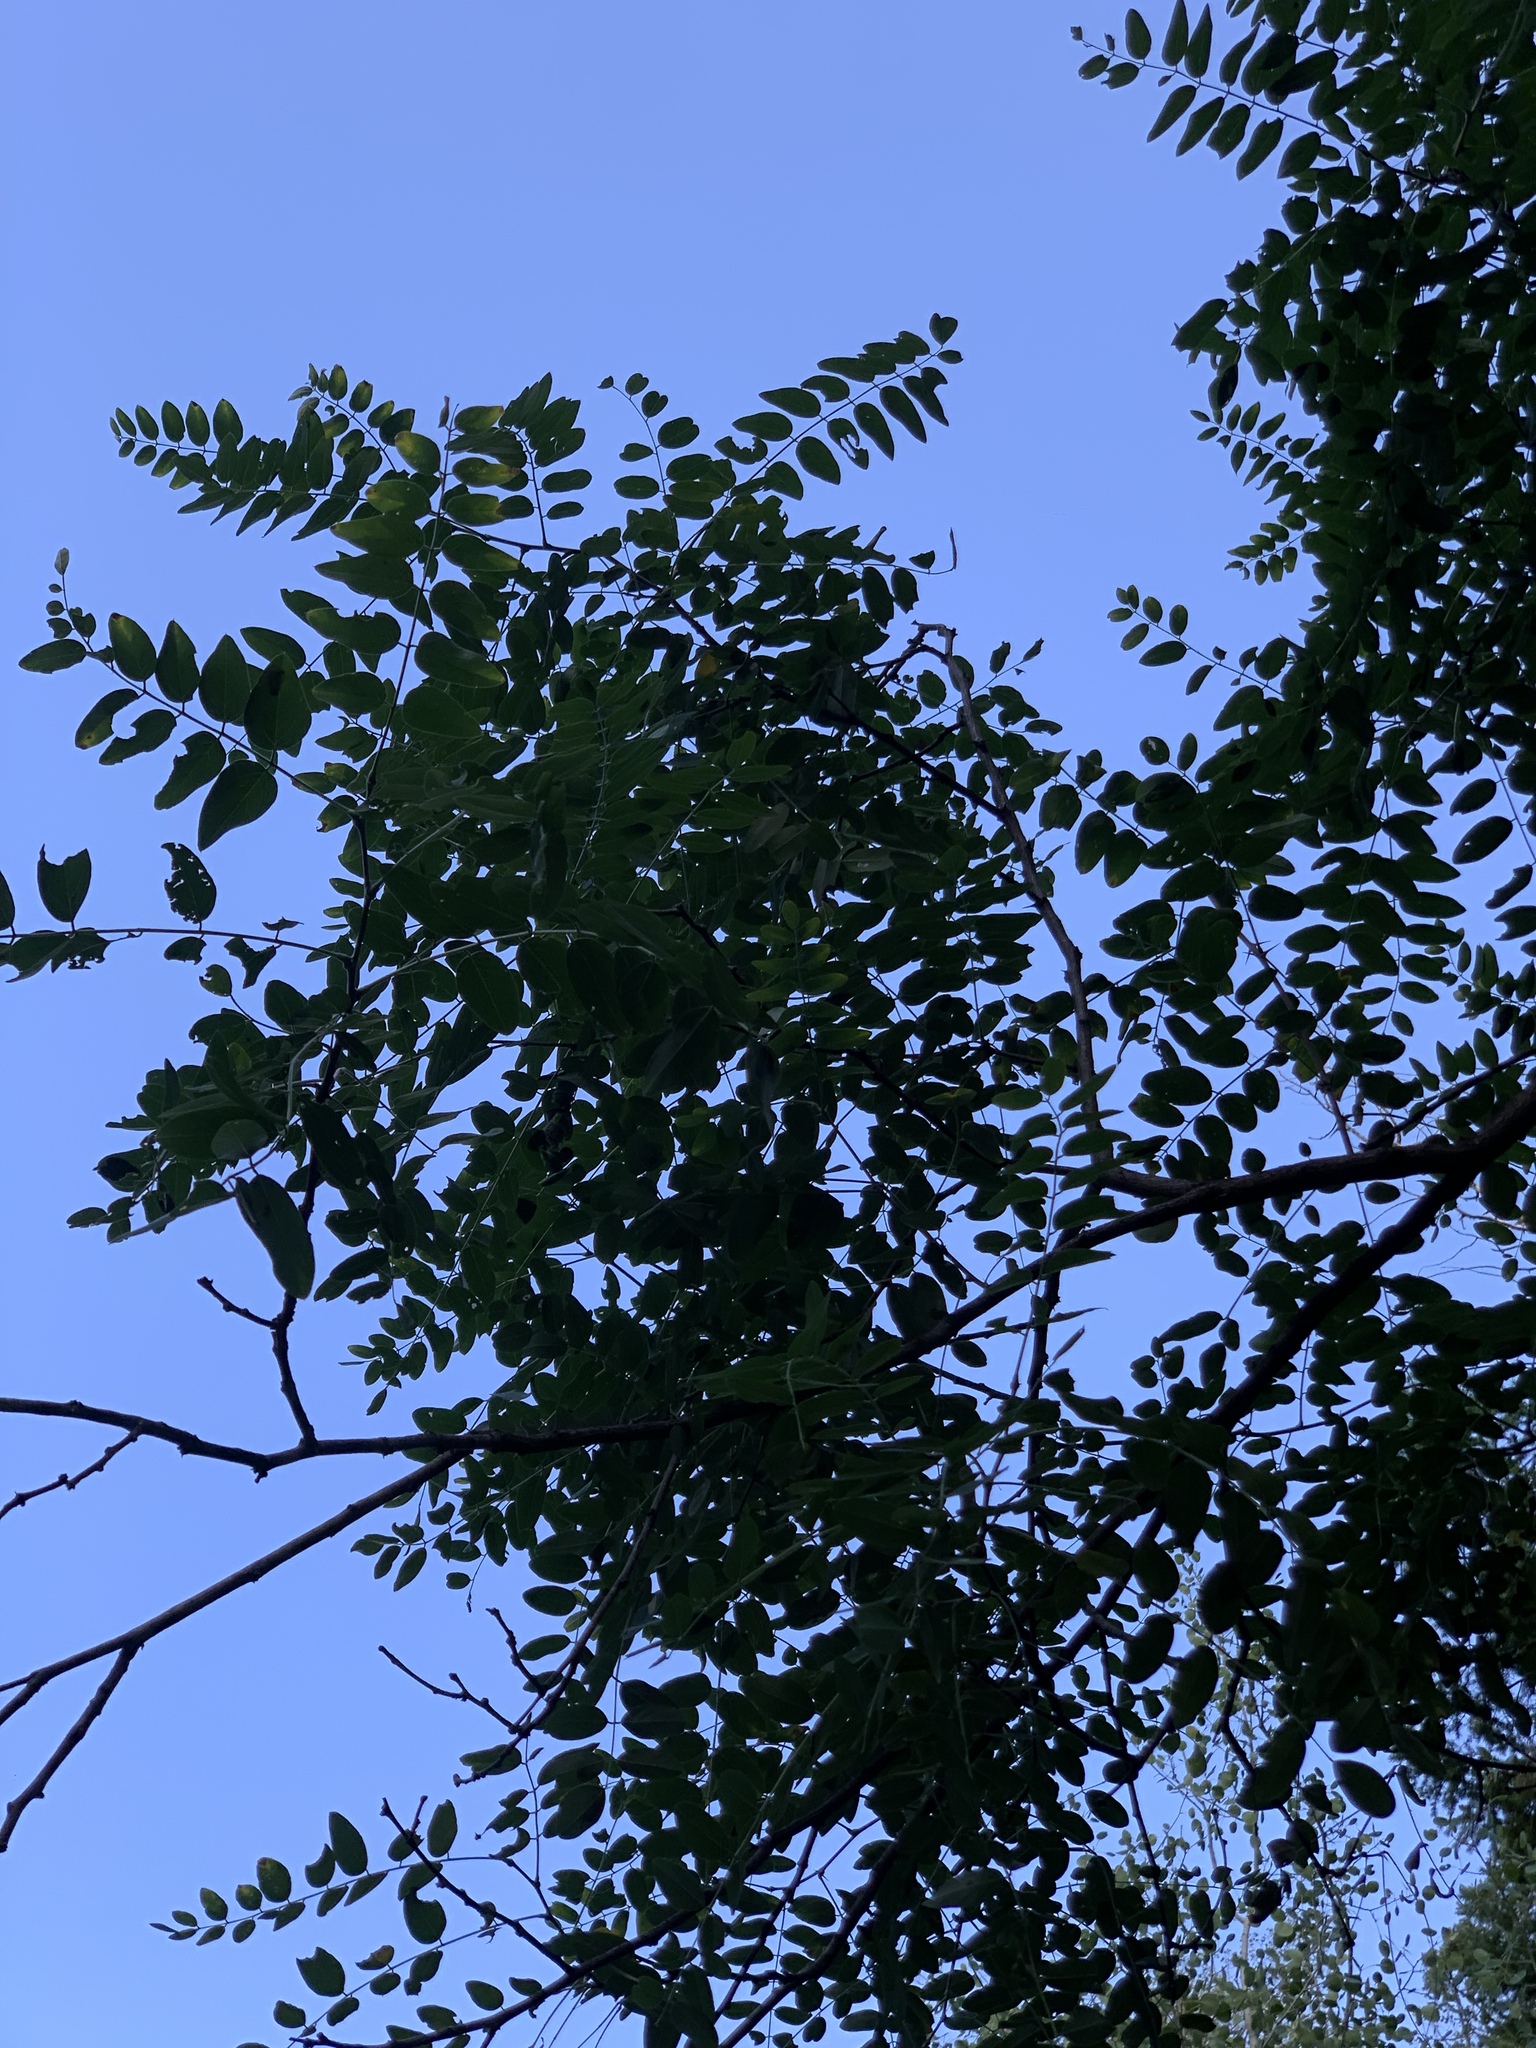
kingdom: Plantae
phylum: Tracheophyta
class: Magnoliopsida
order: Fabales
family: Fabaceae
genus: Robinia
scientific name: Robinia neomexicana
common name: New mexico locust
